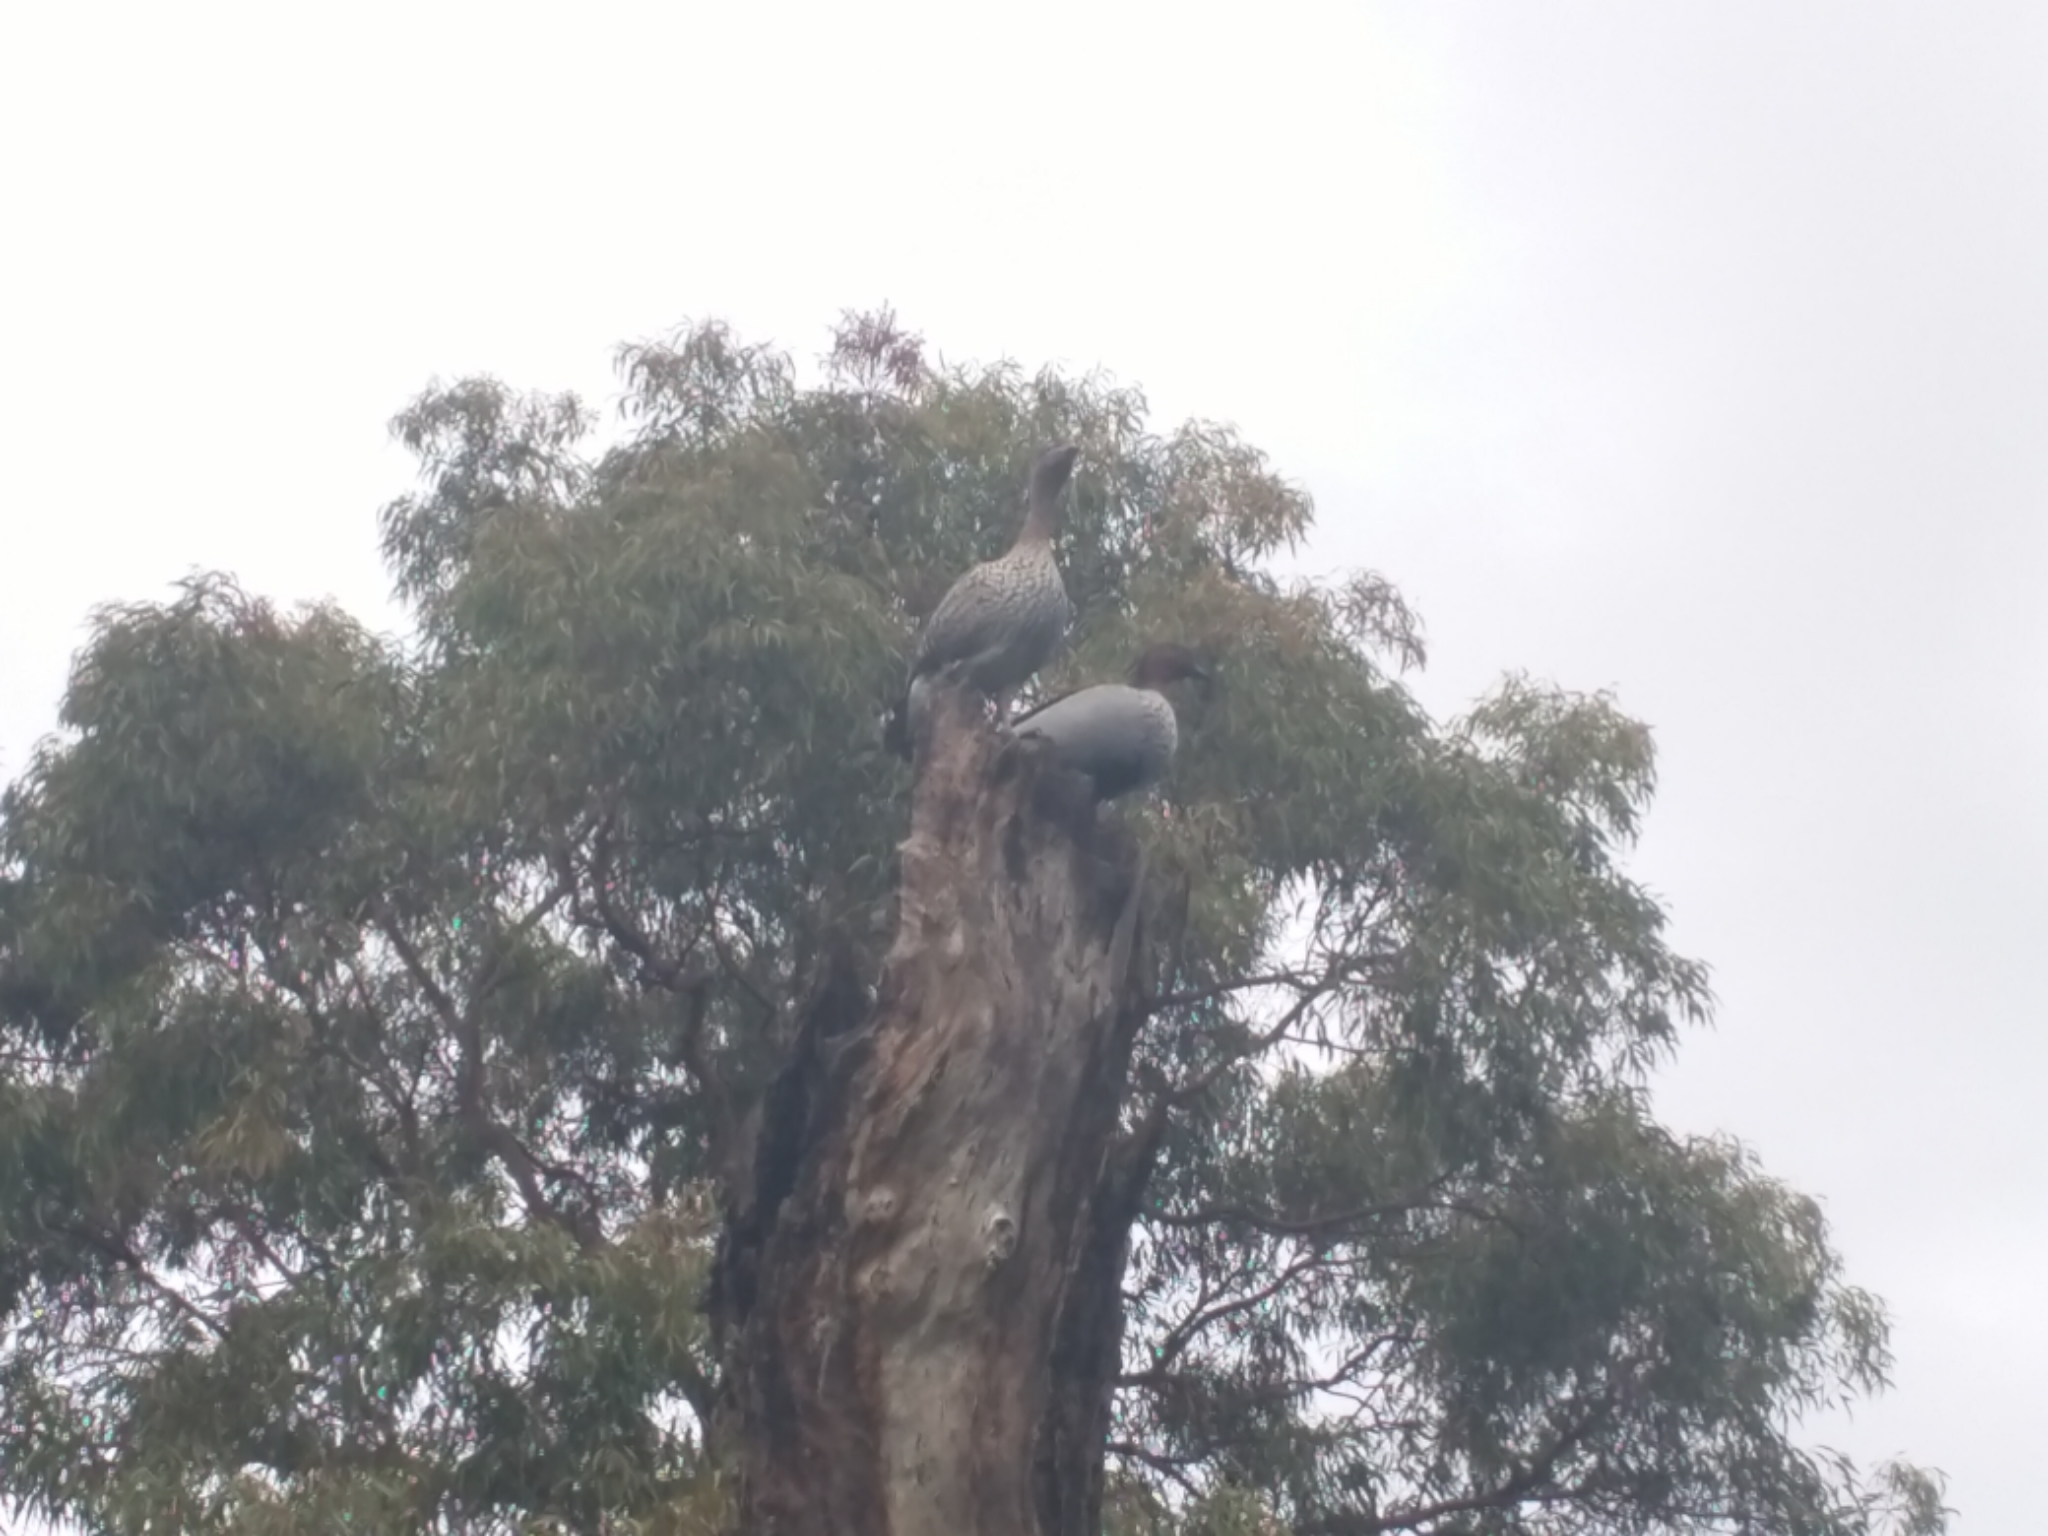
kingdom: Animalia
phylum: Chordata
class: Aves
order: Anseriformes
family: Anatidae
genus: Chenonetta
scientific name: Chenonetta jubata
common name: Maned duck
